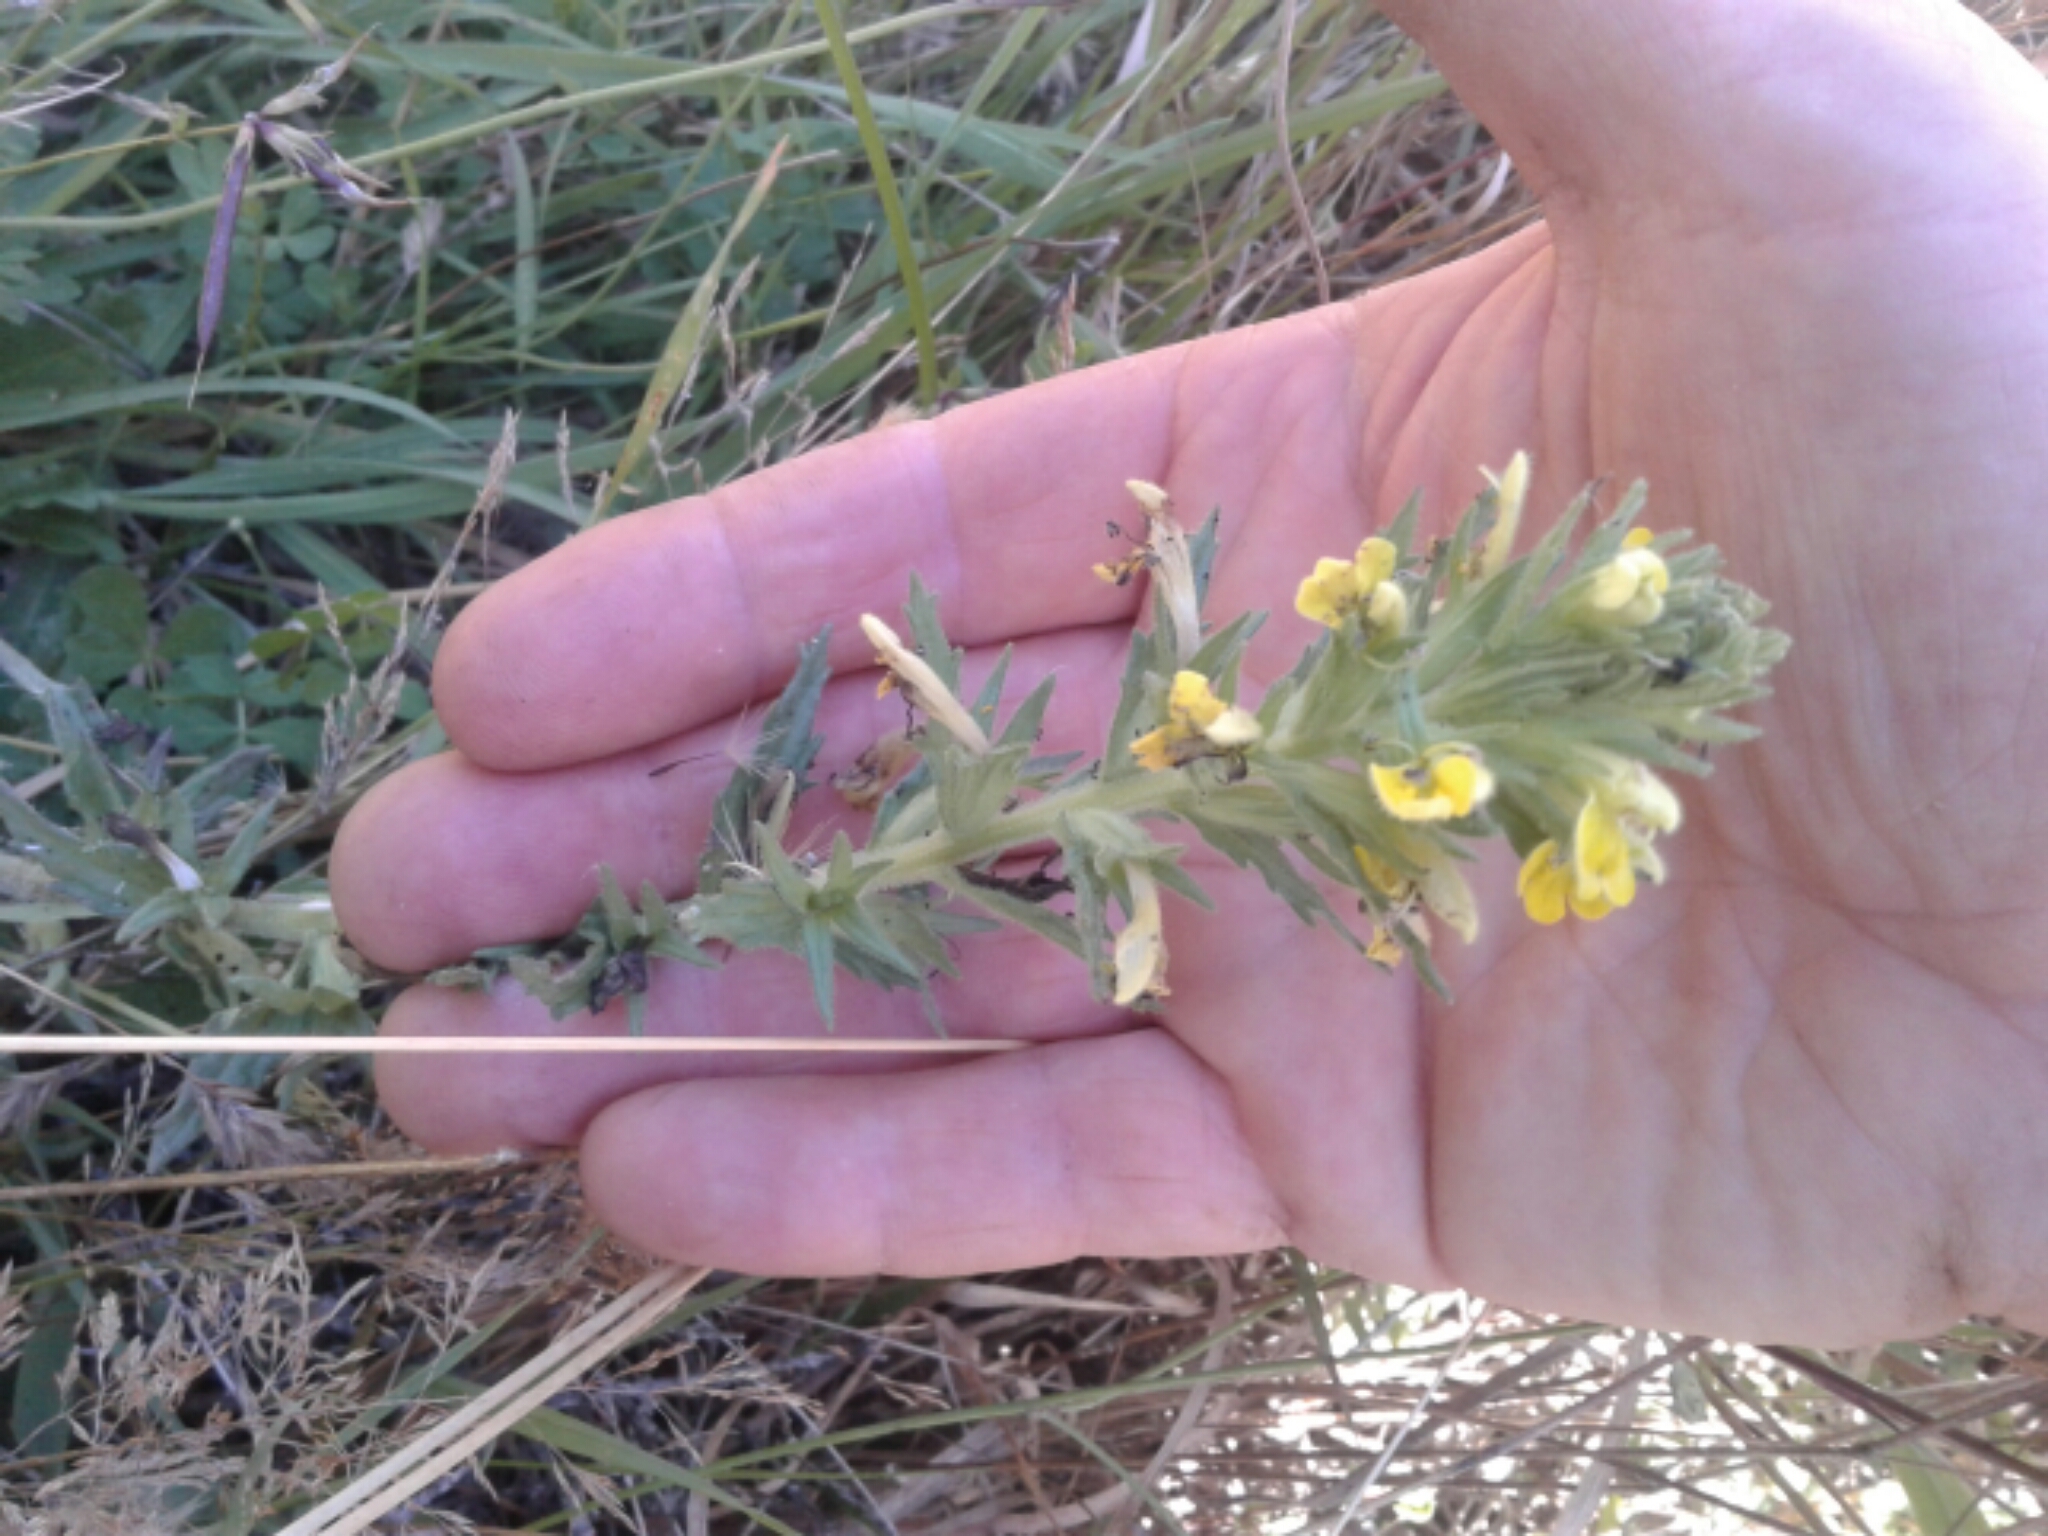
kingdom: Plantae
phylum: Tracheophyta
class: Magnoliopsida
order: Lamiales
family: Orobanchaceae
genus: Bellardia
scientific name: Bellardia viscosa
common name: Sticky parentucellia
